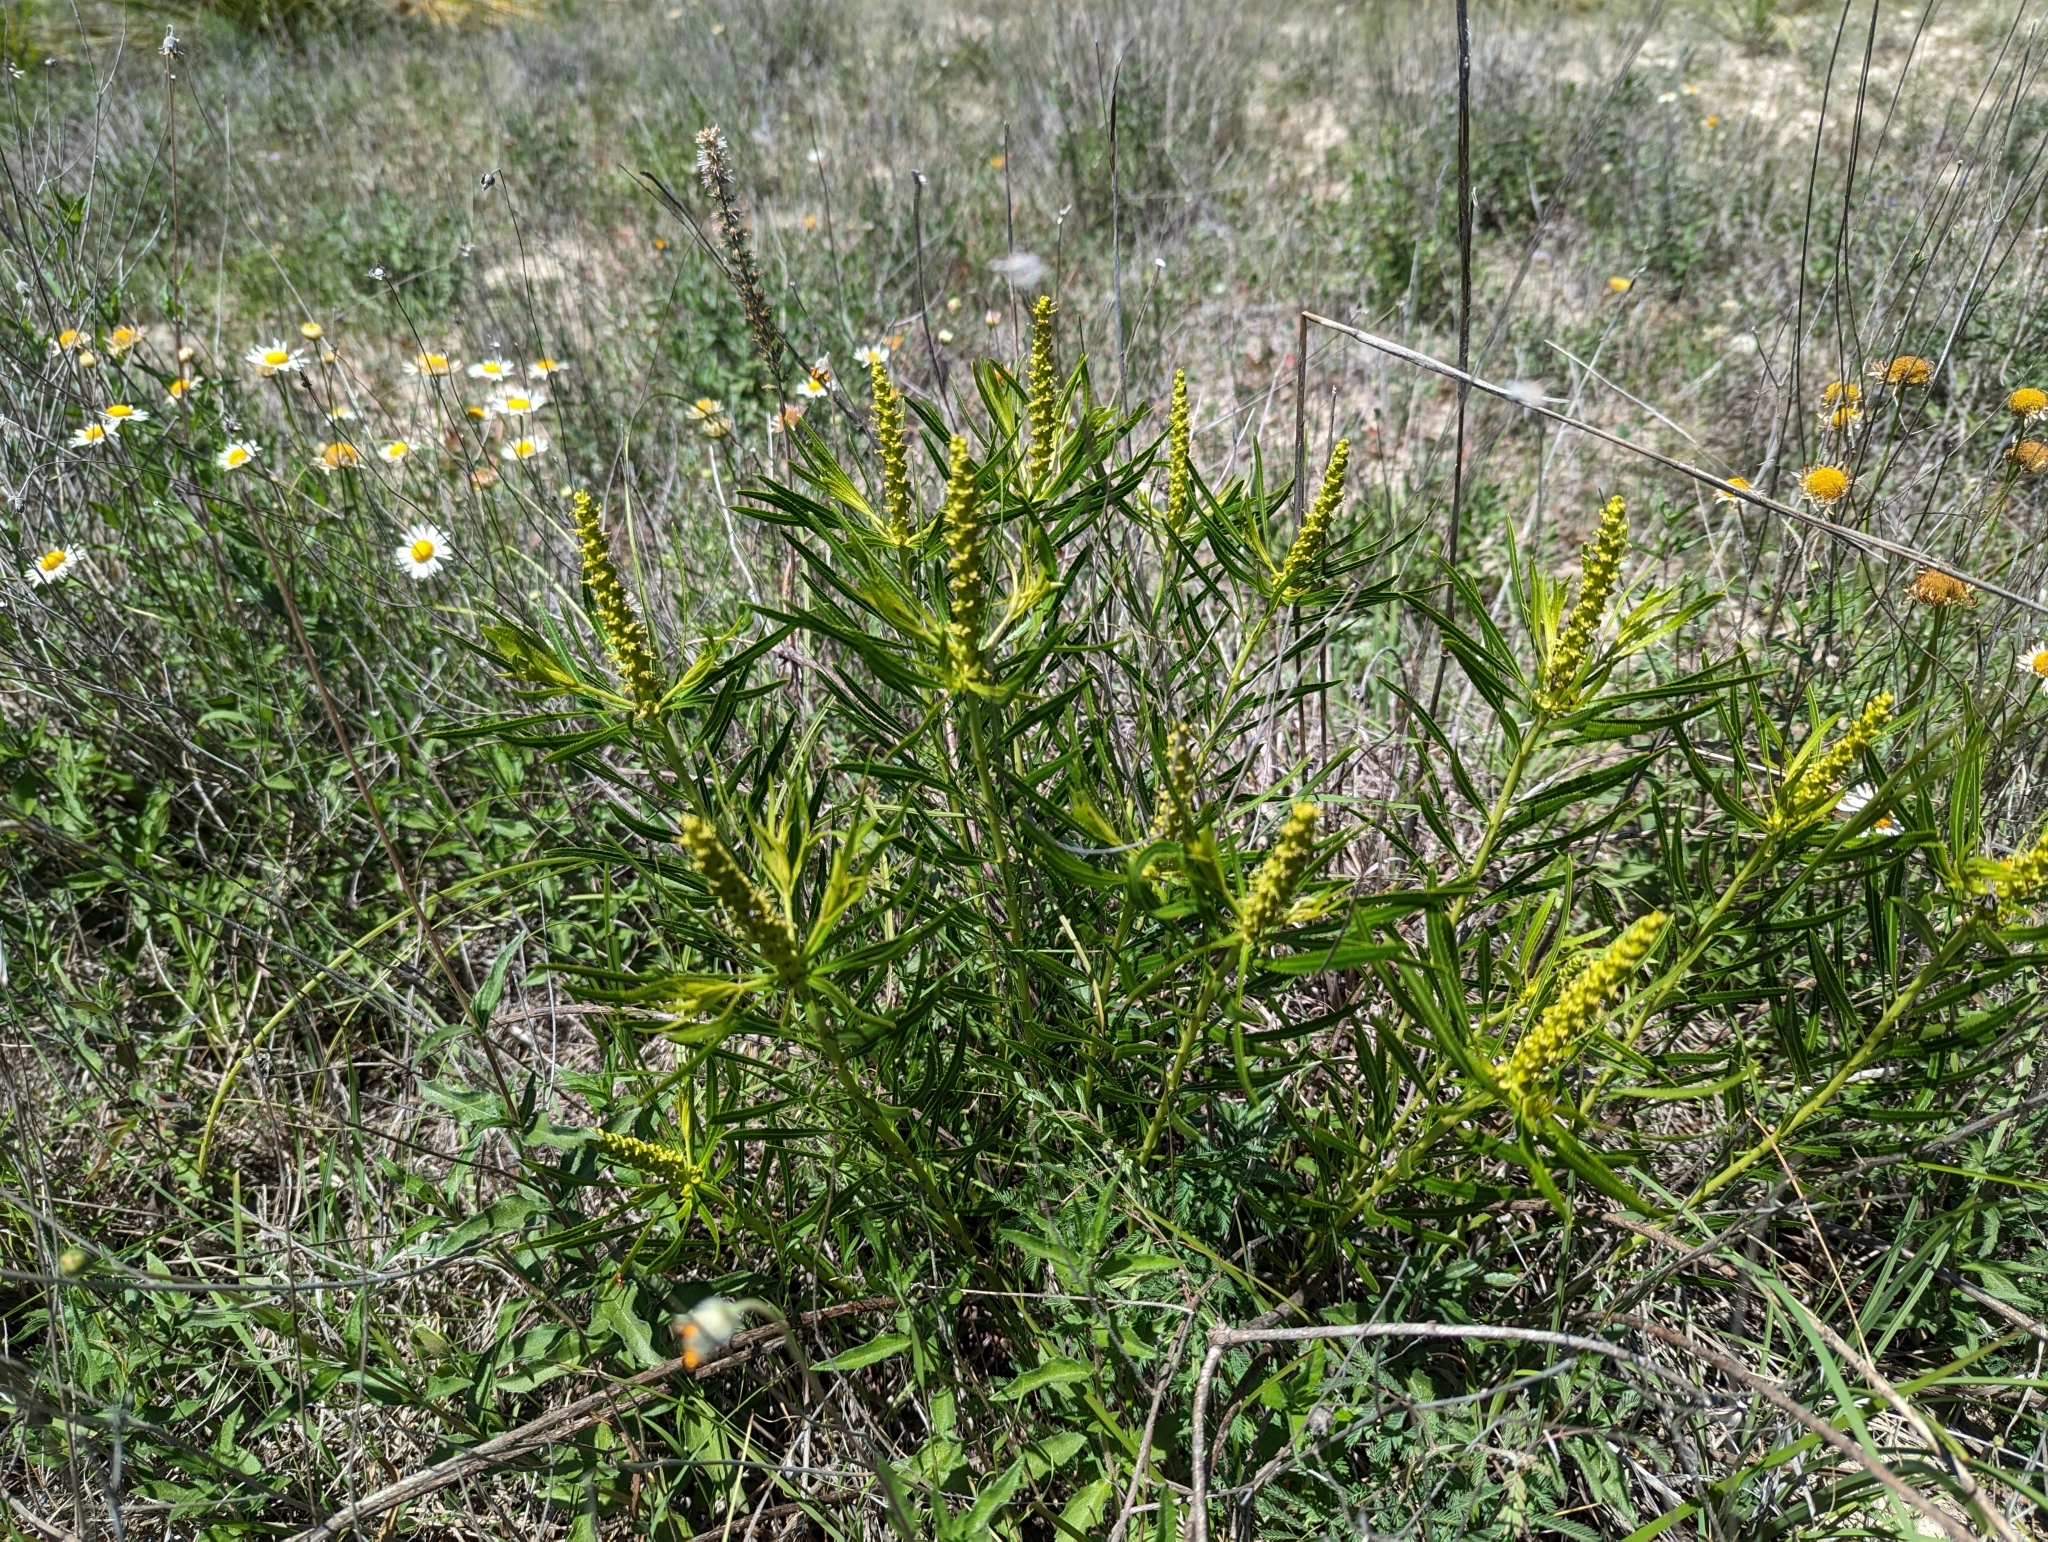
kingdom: Plantae
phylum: Tracheophyta
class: Magnoliopsida
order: Malpighiales
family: Euphorbiaceae
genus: Stillingia
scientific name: Stillingia texana
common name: Texas stillingia
